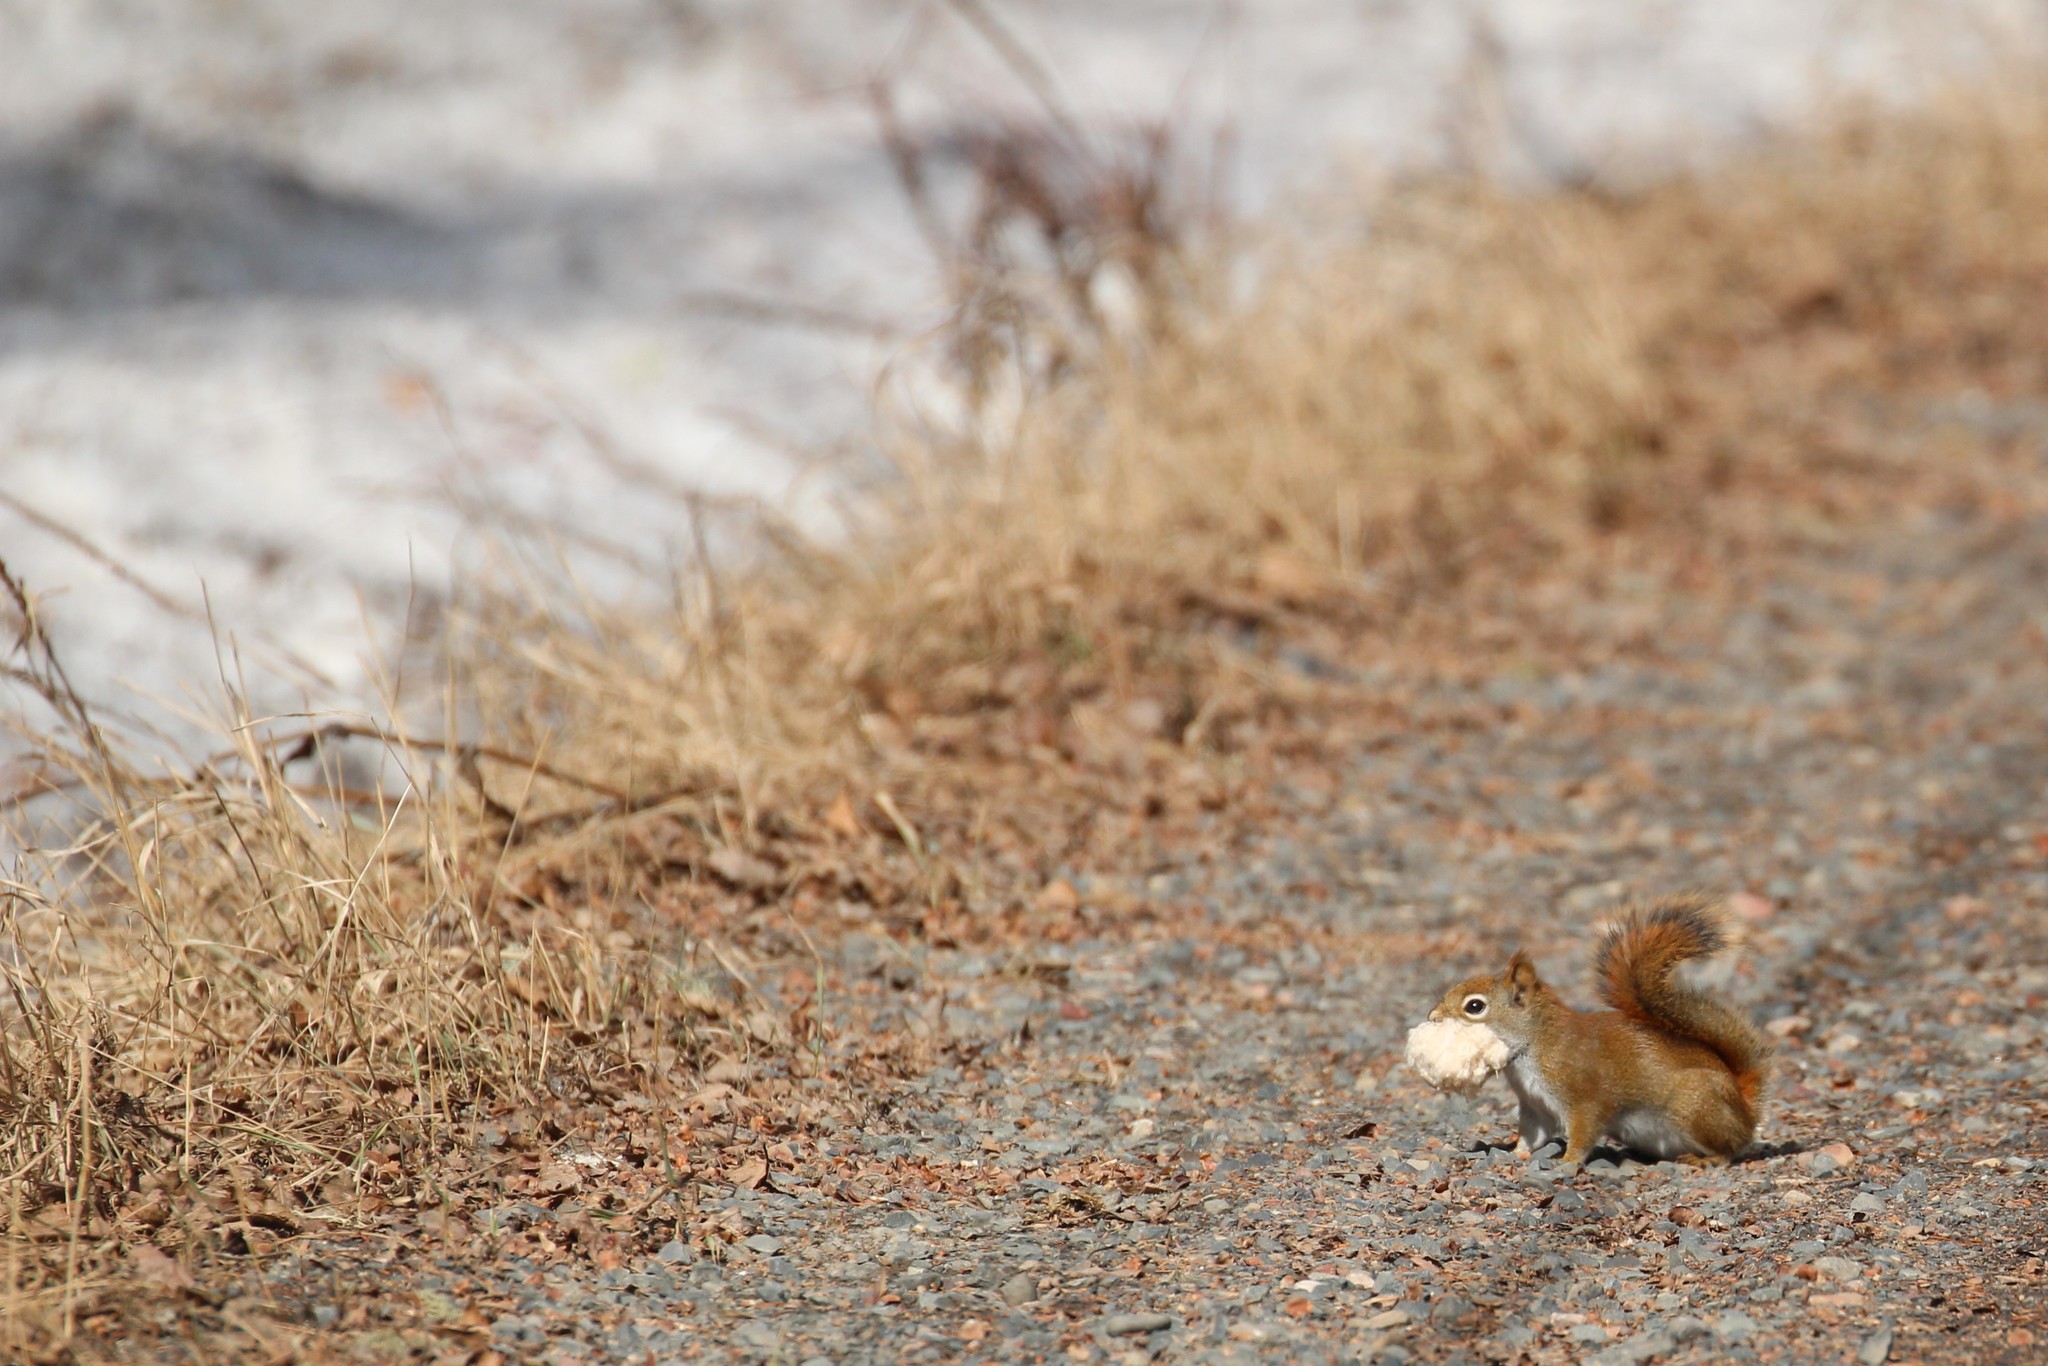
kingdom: Animalia
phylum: Chordata
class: Mammalia
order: Rodentia
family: Sciuridae
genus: Tamiasciurus
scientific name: Tamiasciurus hudsonicus
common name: Red squirrel
